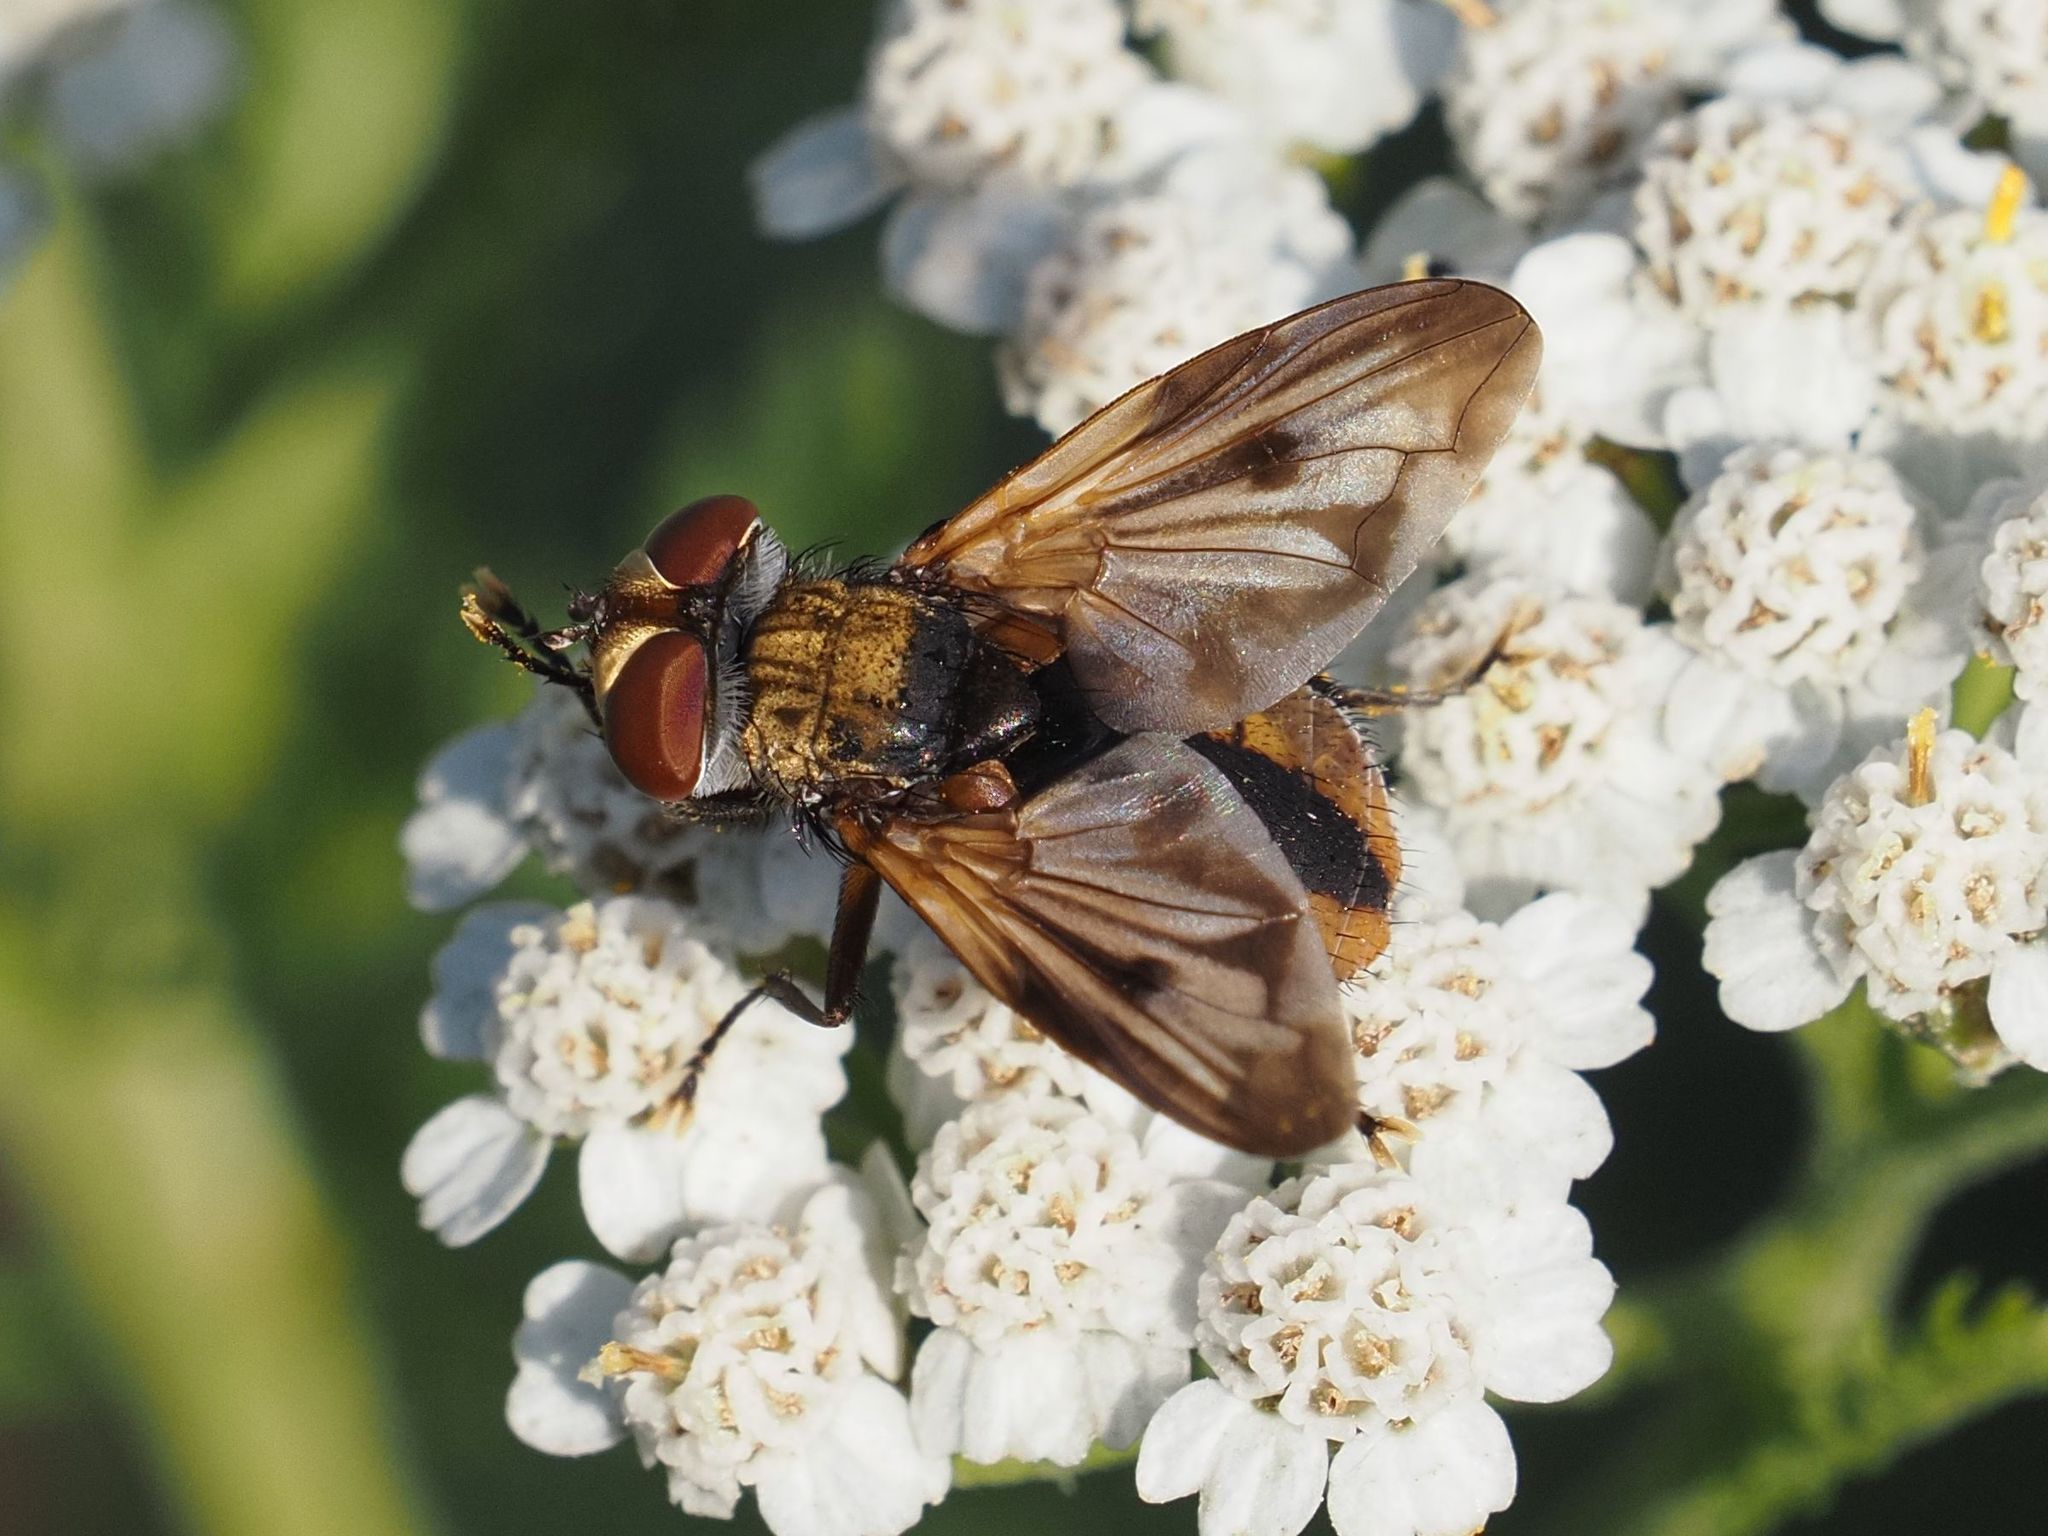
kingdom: Animalia
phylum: Arthropoda
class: Insecta
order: Diptera
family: Tachinidae
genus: Ectophasia
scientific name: Ectophasia crassipennis
